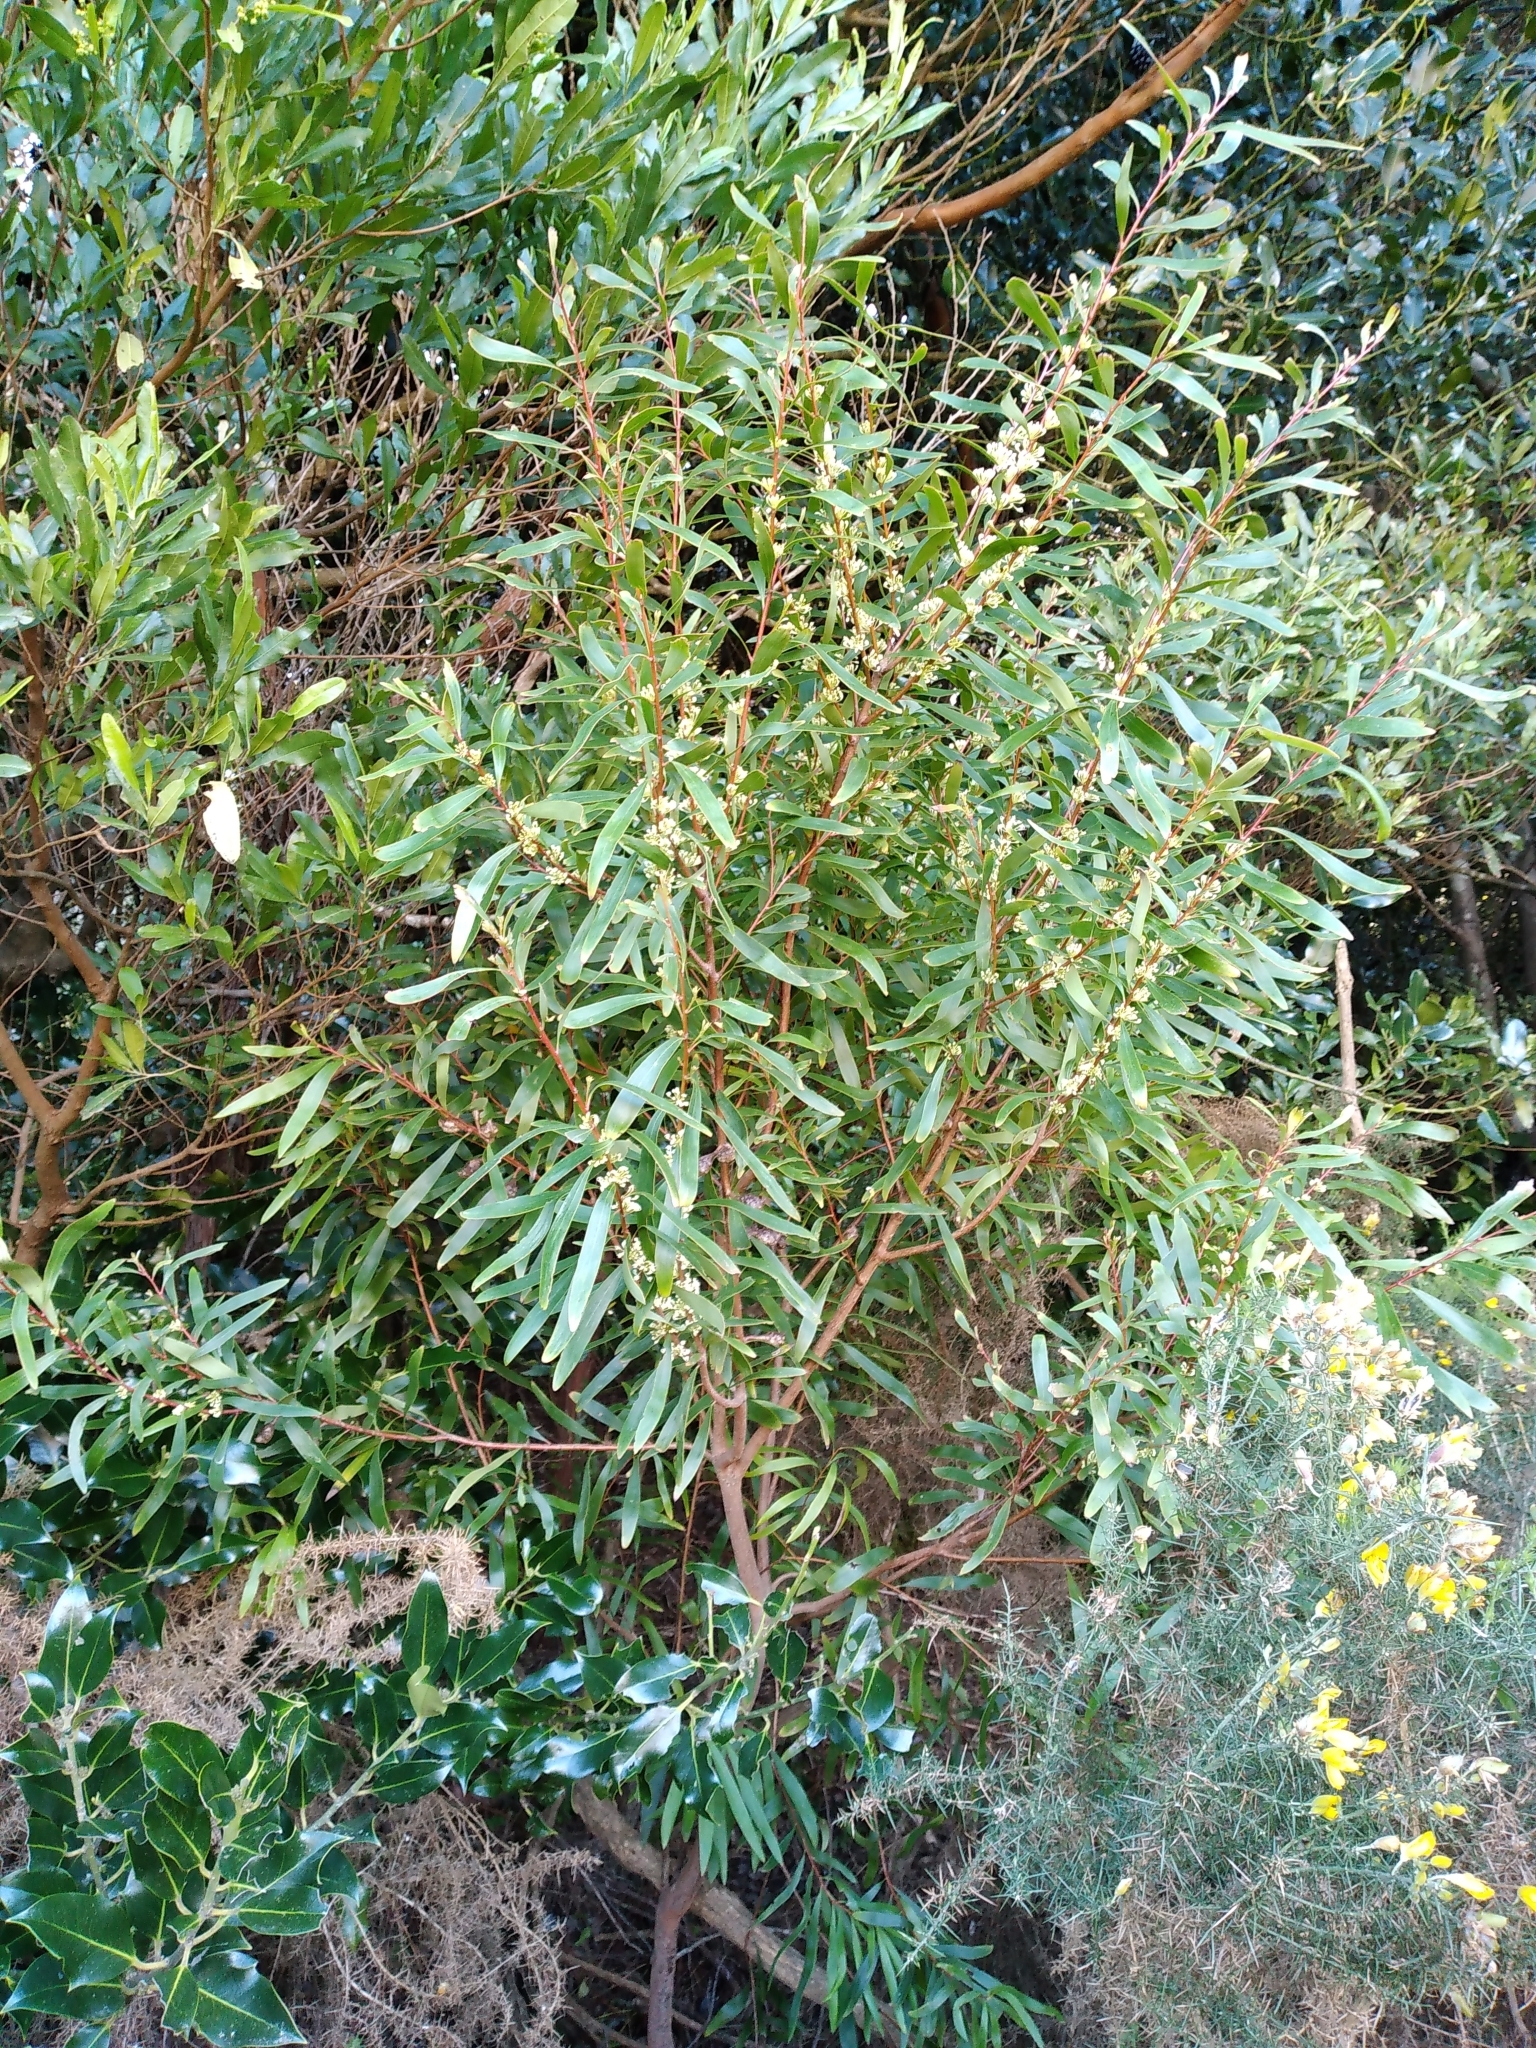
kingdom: Plantae
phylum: Tracheophyta
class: Magnoliopsida
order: Proteales
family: Proteaceae
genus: Hakea
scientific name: Hakea salicifolia
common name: Willow hakea
